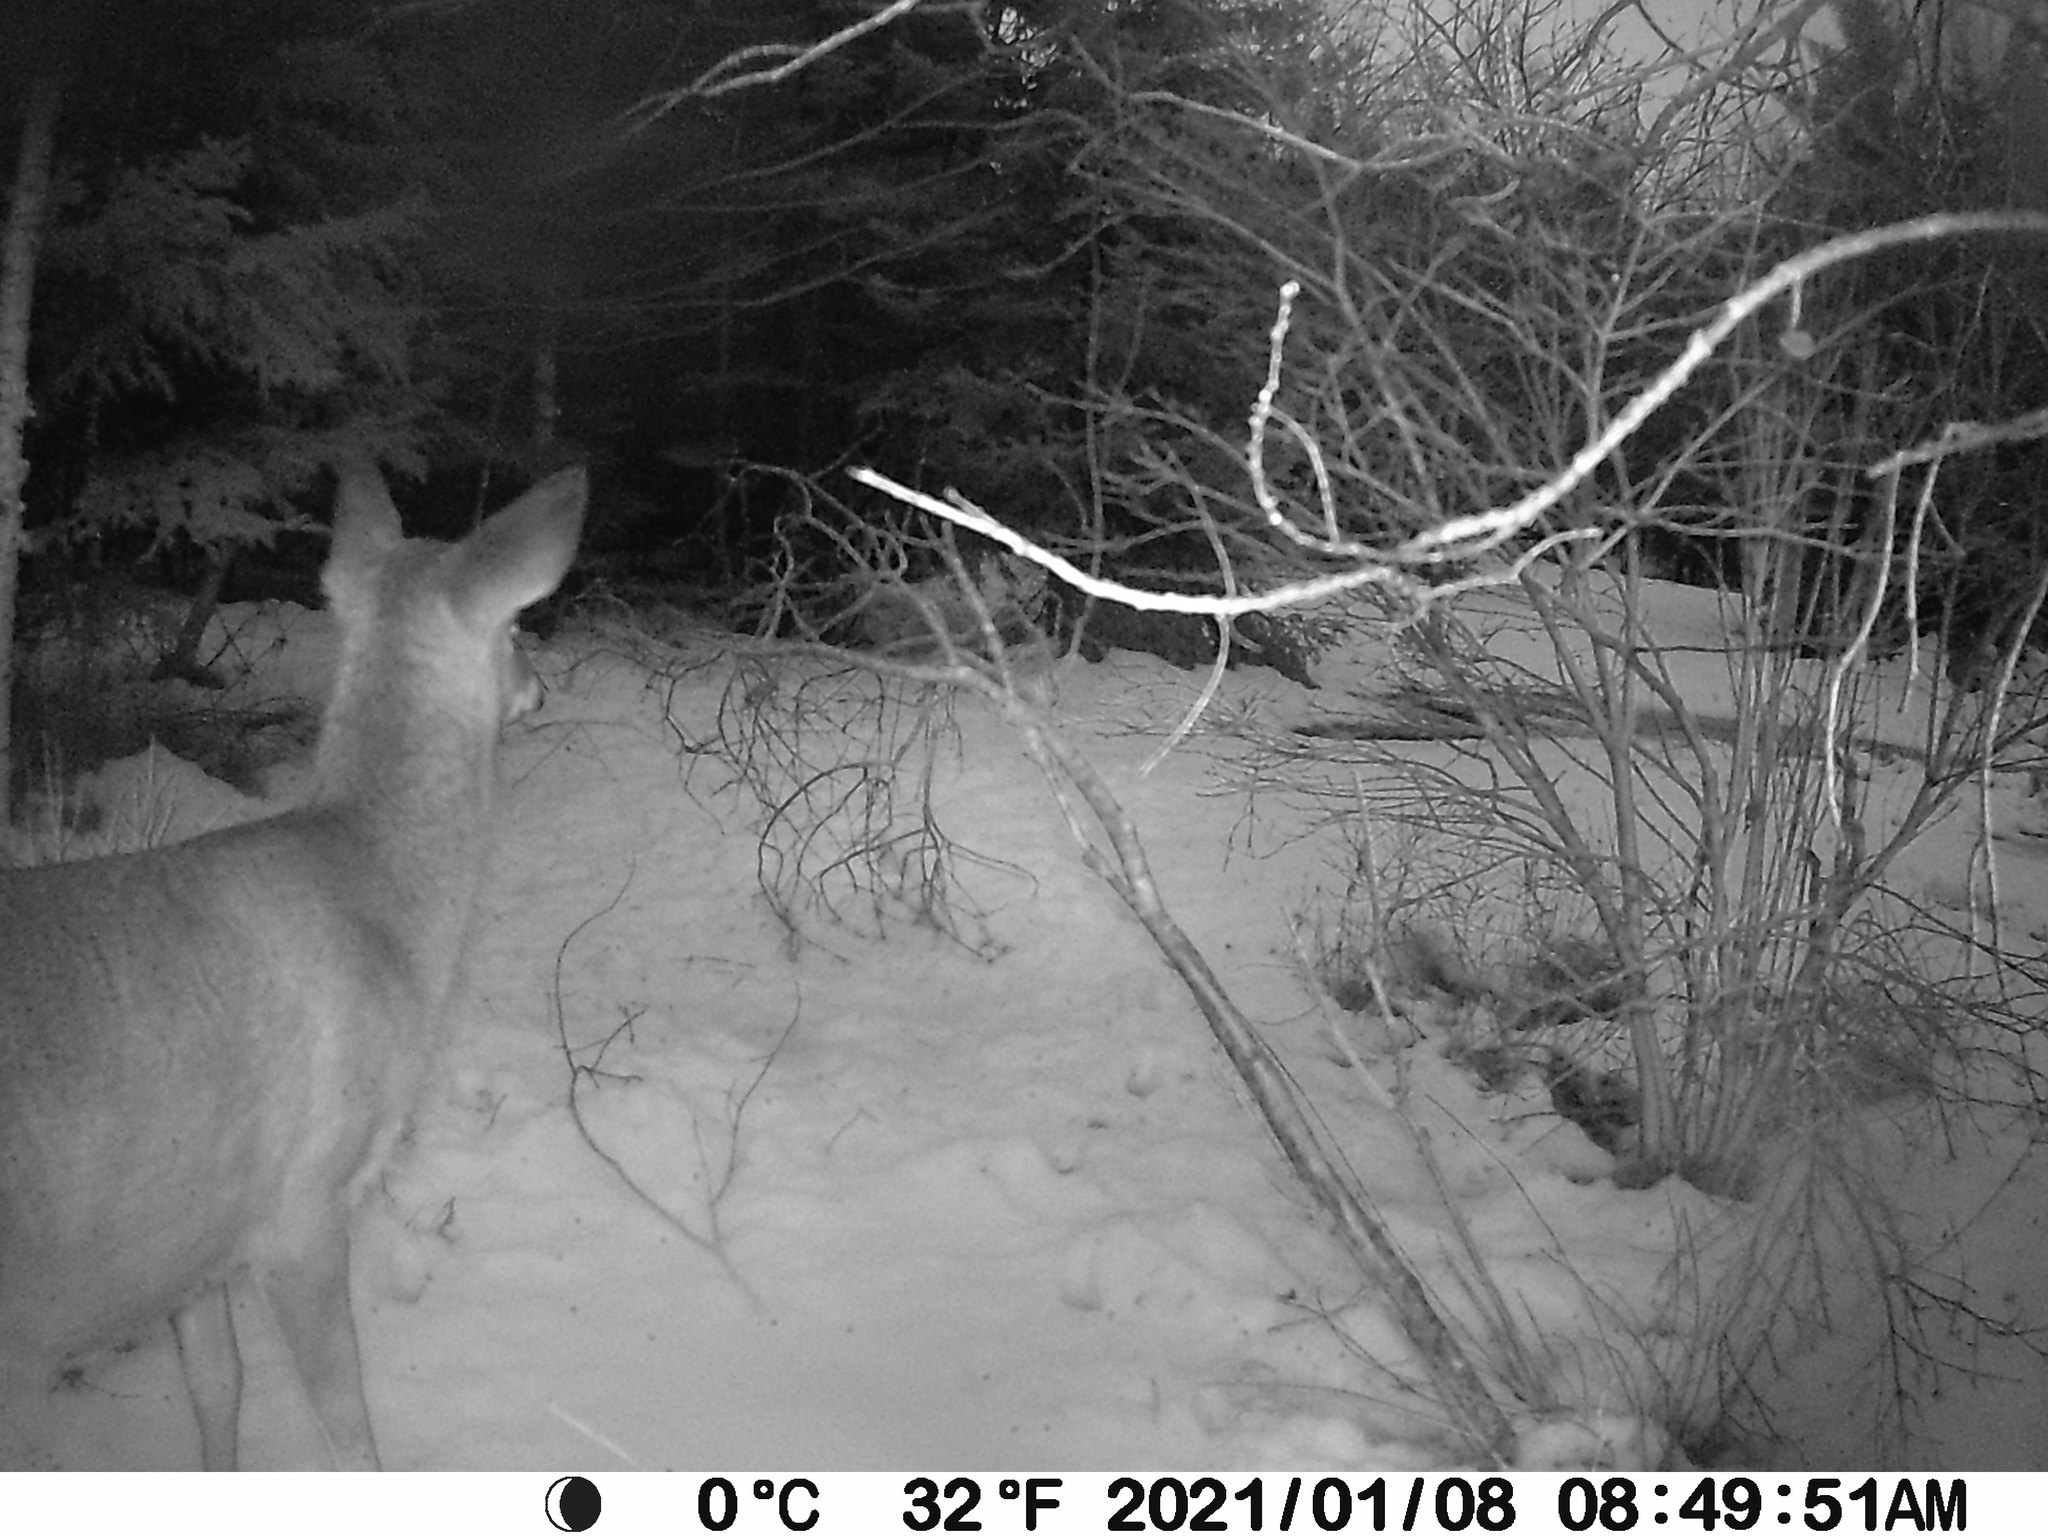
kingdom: Animalia
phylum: Chordata
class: Mammalia
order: Artiodactyla
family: Cervidae
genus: Odocoileus
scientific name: Odocoileus virginianus
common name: White-tailed deer
